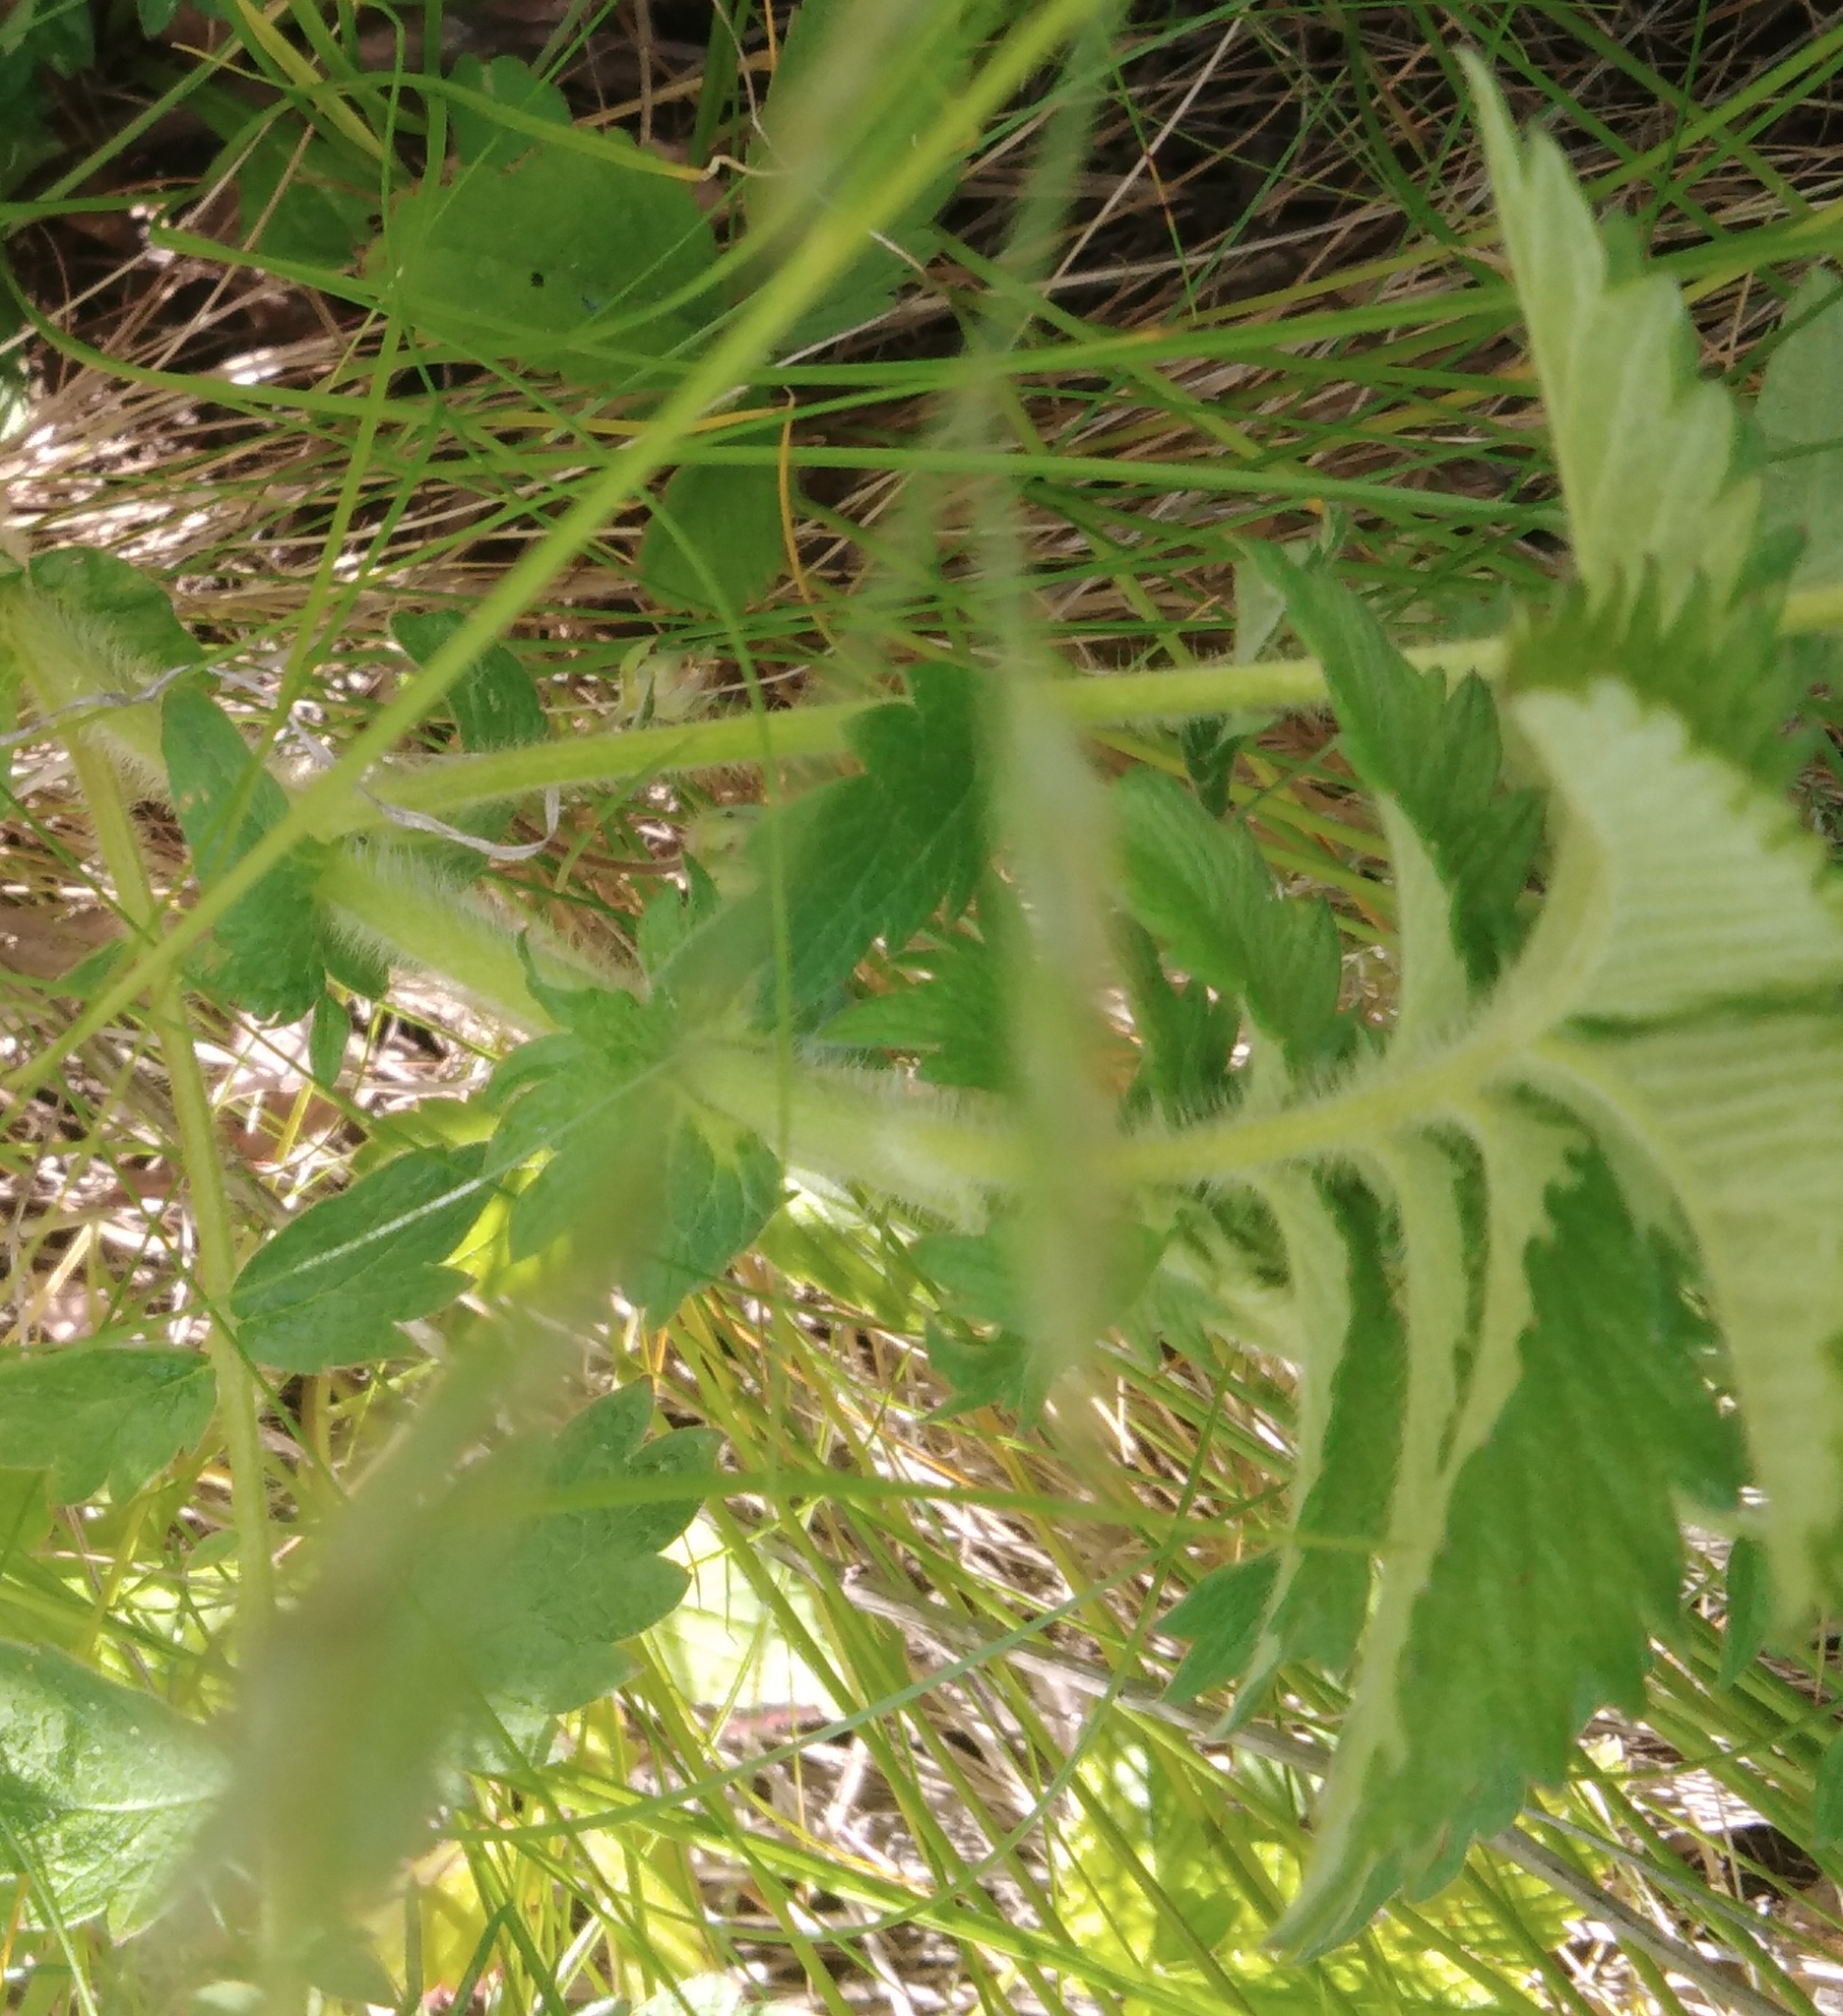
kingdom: Plantae
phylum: Tracheophyta
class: Magnoliopsida
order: Rosales
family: Rosaceae
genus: Agrimonia
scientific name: Agrimonia eupatoria
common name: Agrimony
